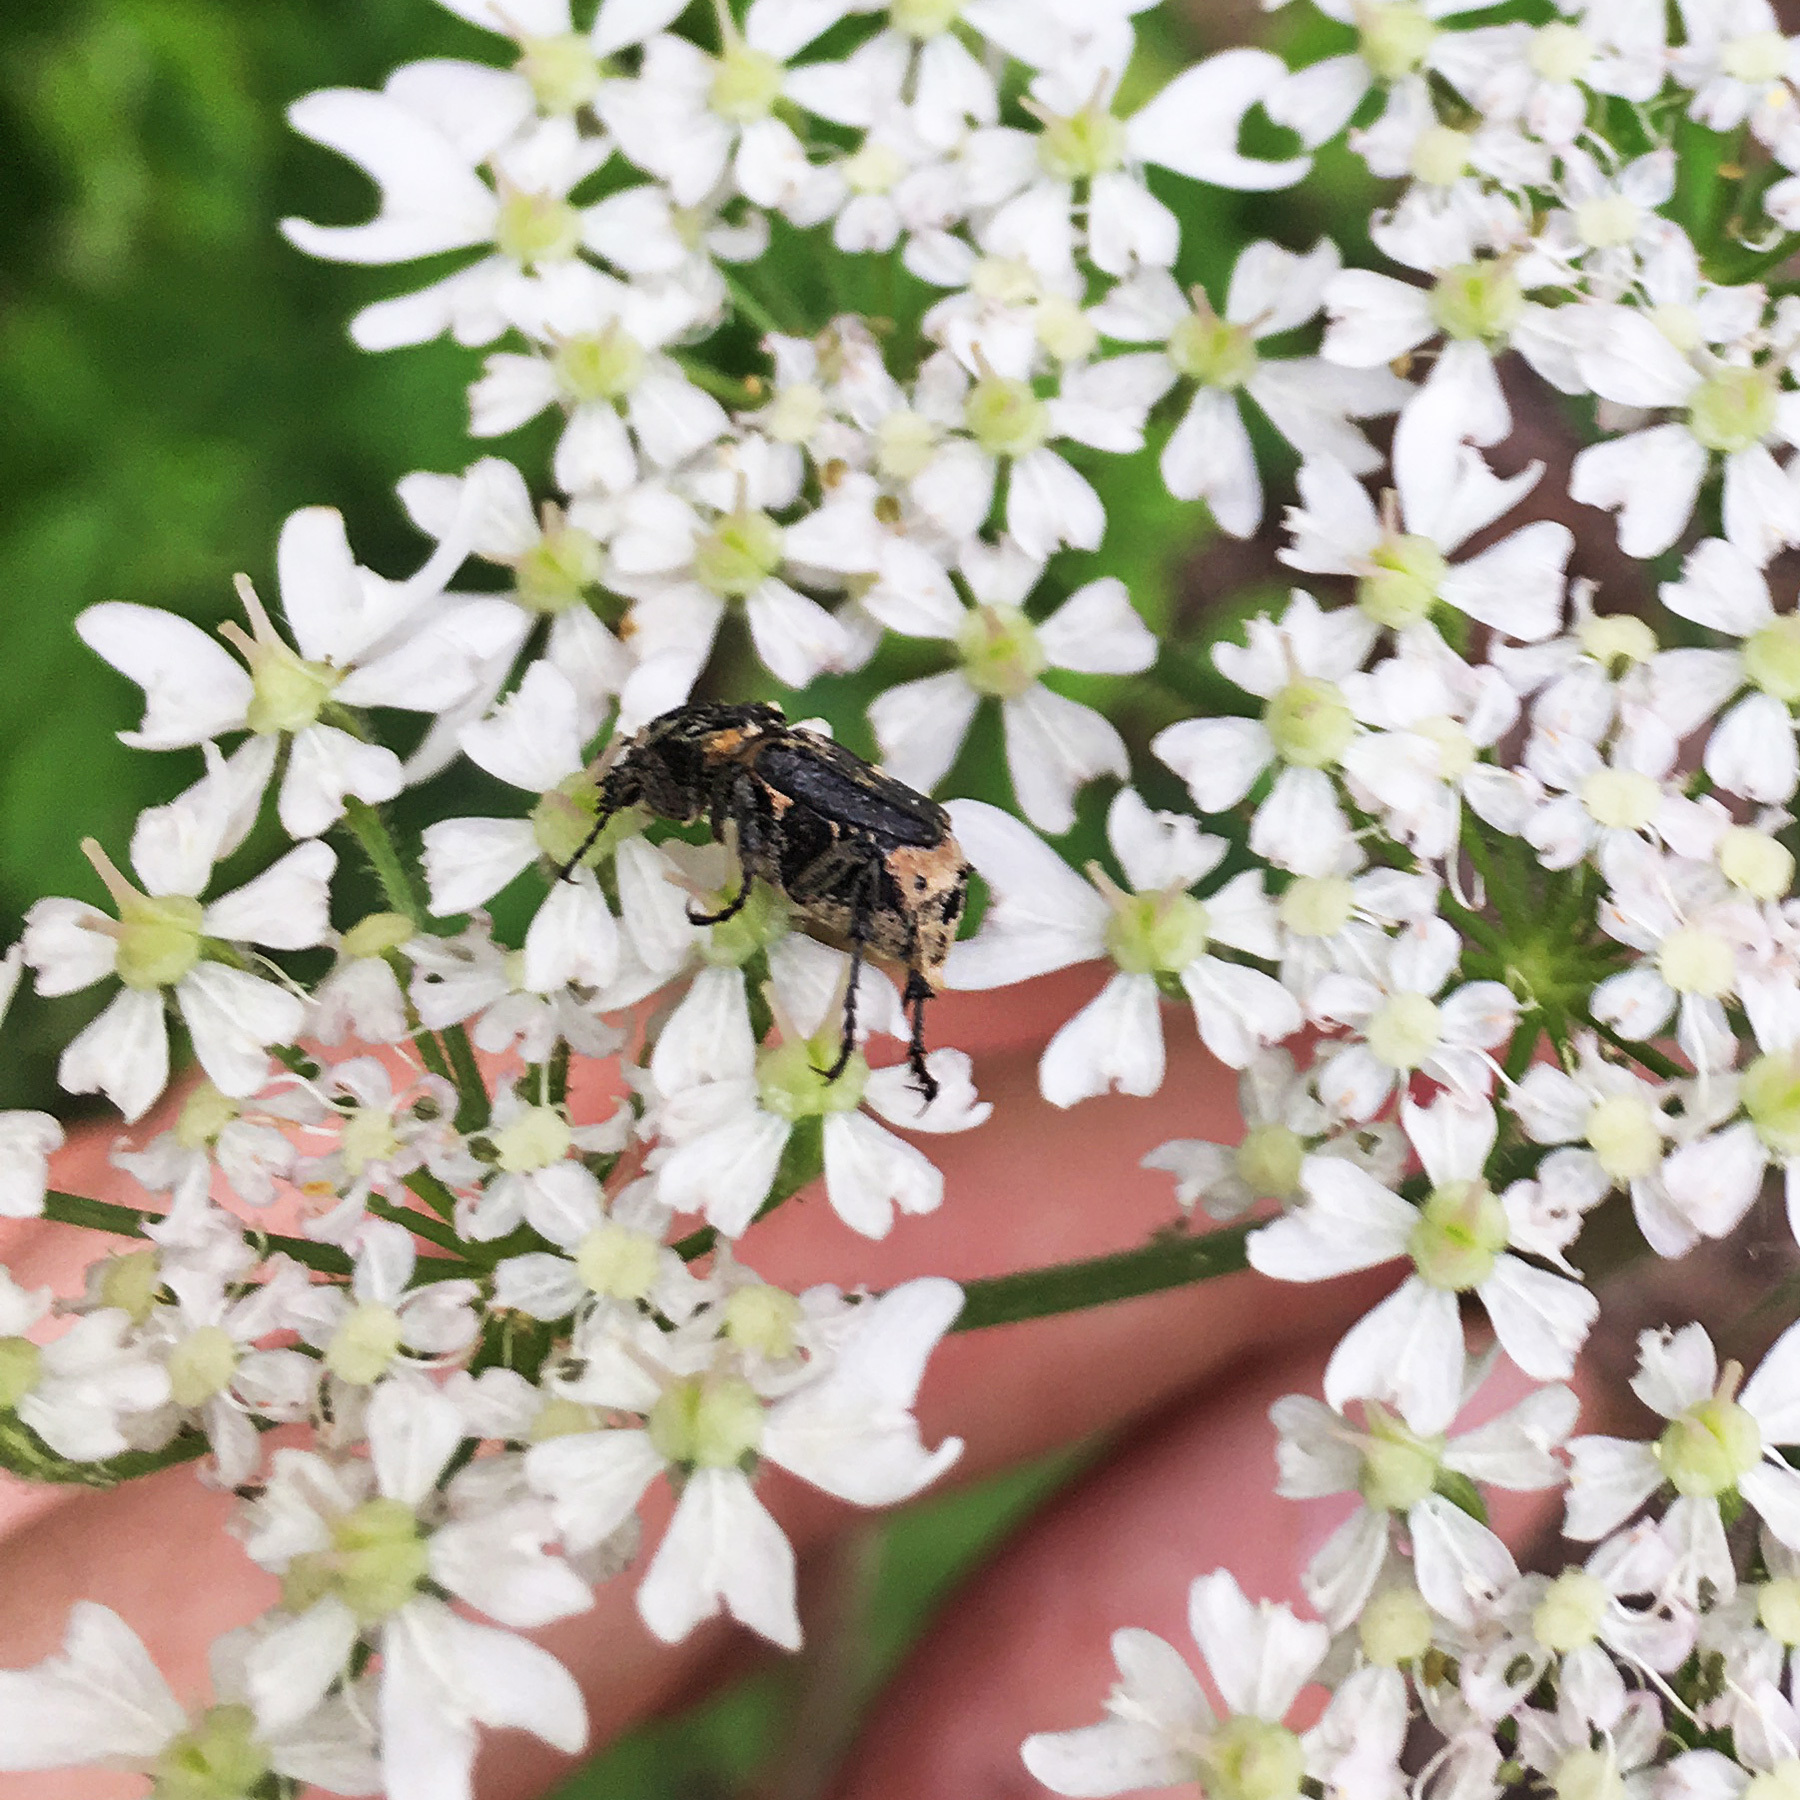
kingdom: Animalia
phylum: Arthropoda
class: Insecta
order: Coleoptera
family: Scarabaeidae
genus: Valgus
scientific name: Valgus hemipterus
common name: Bug flower chafer
